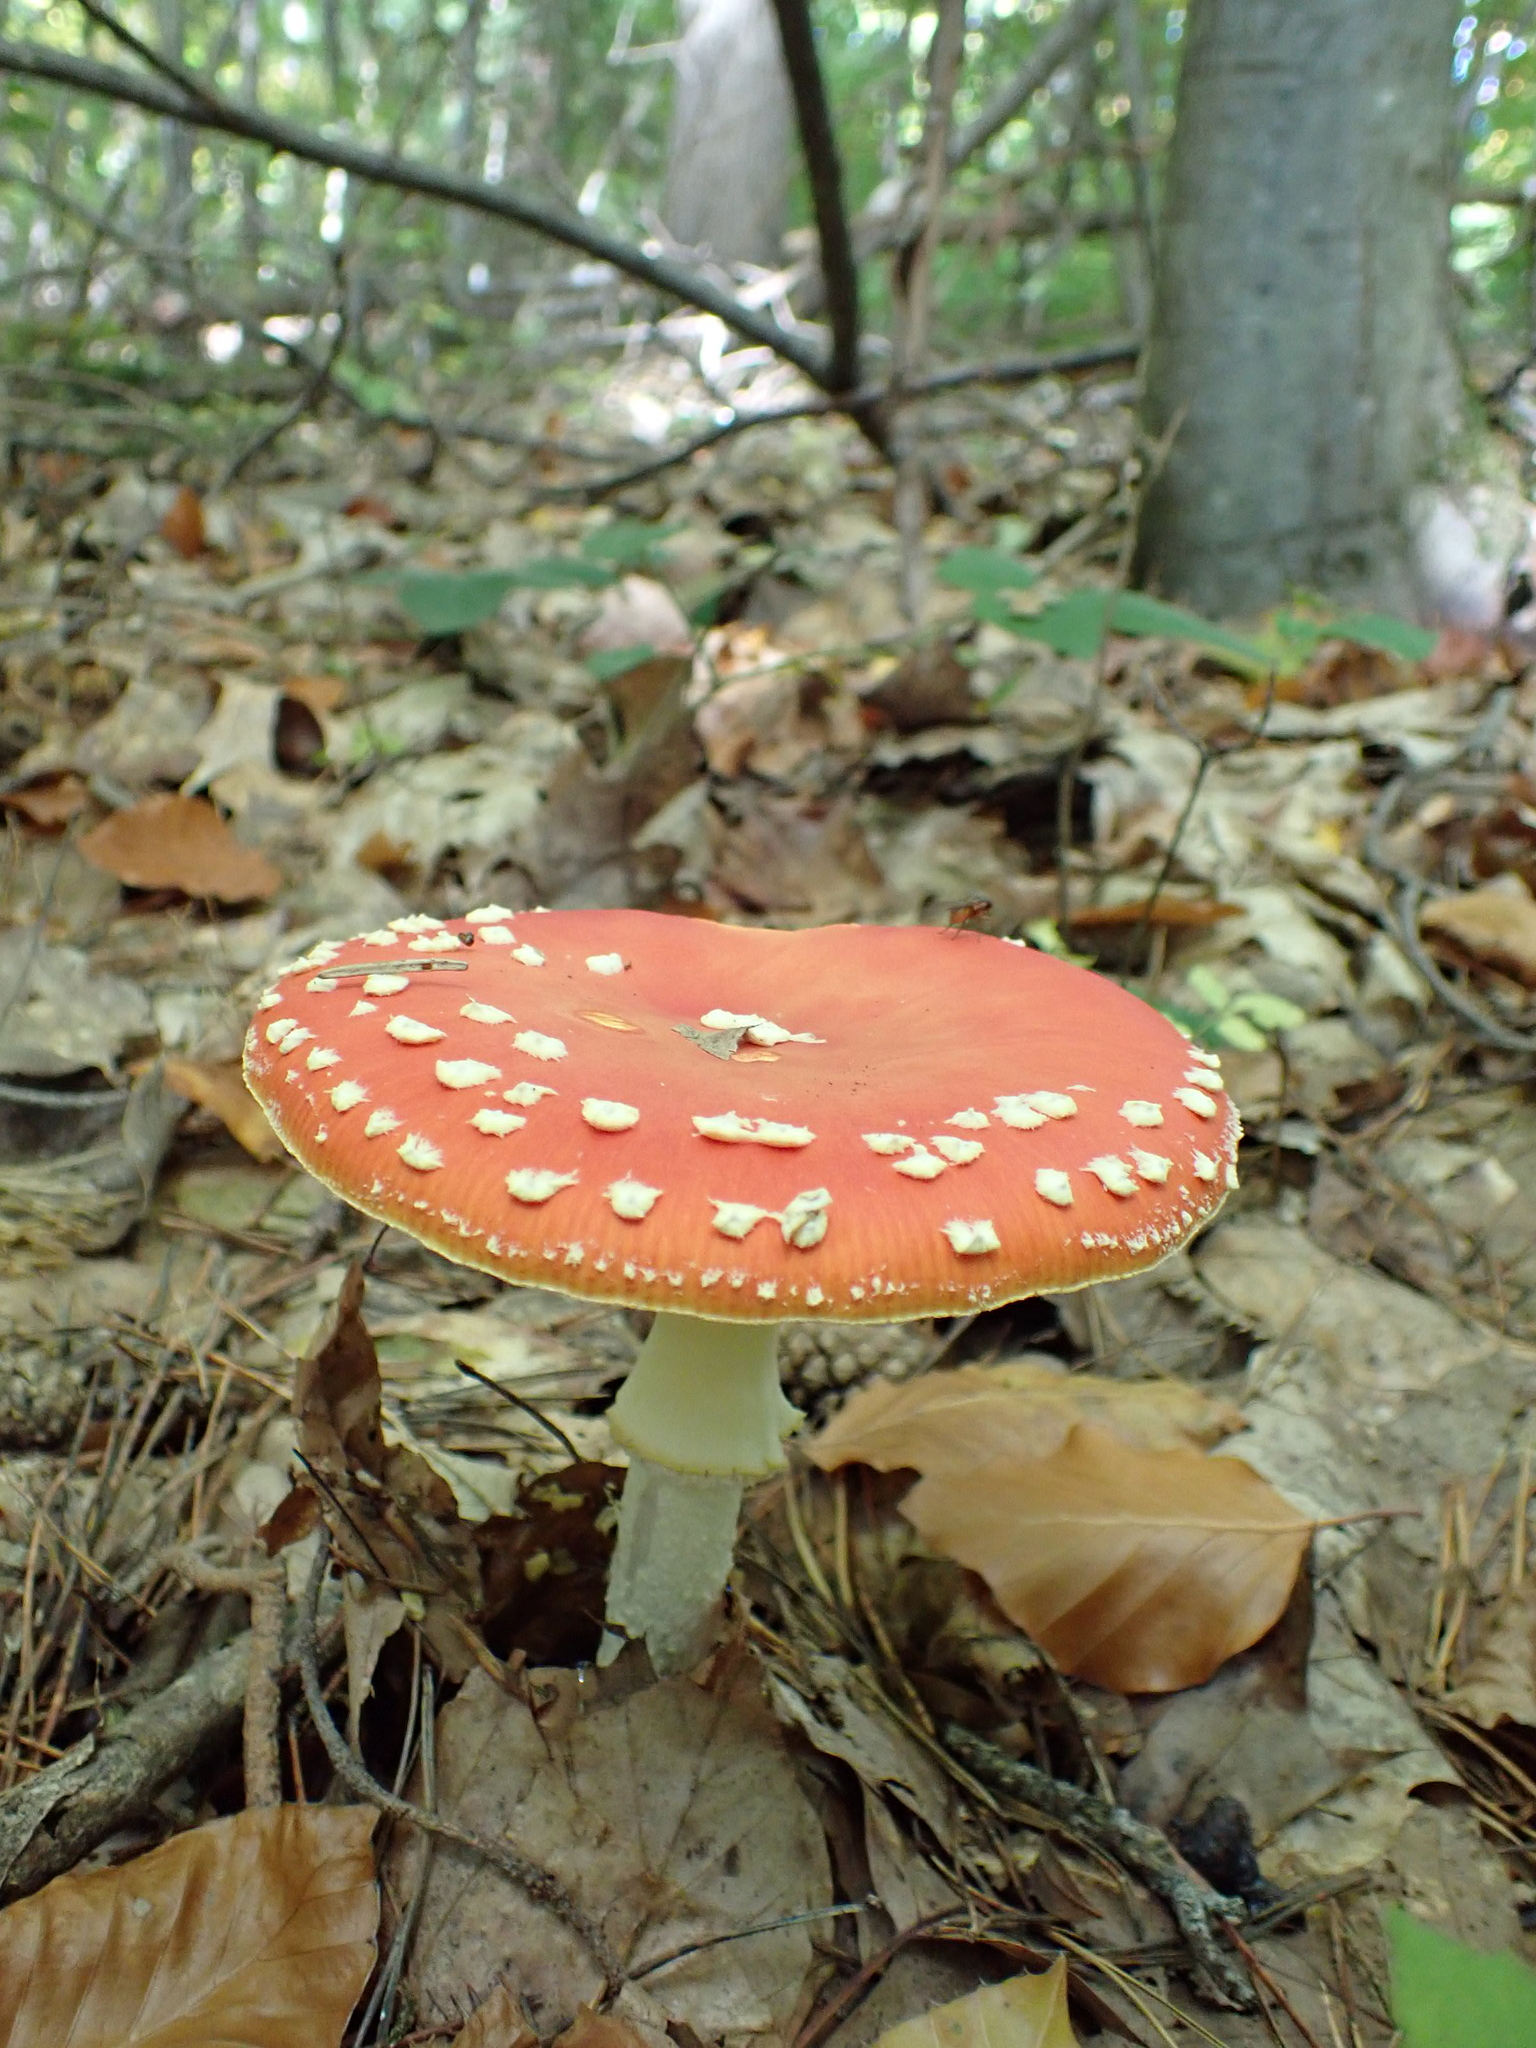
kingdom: Fungi
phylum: Basidiomycota
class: Agaricomycetes
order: Agaricales
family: Amanitaceae
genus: Amanita
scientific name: Amanita muscaria
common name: Fly agaric
